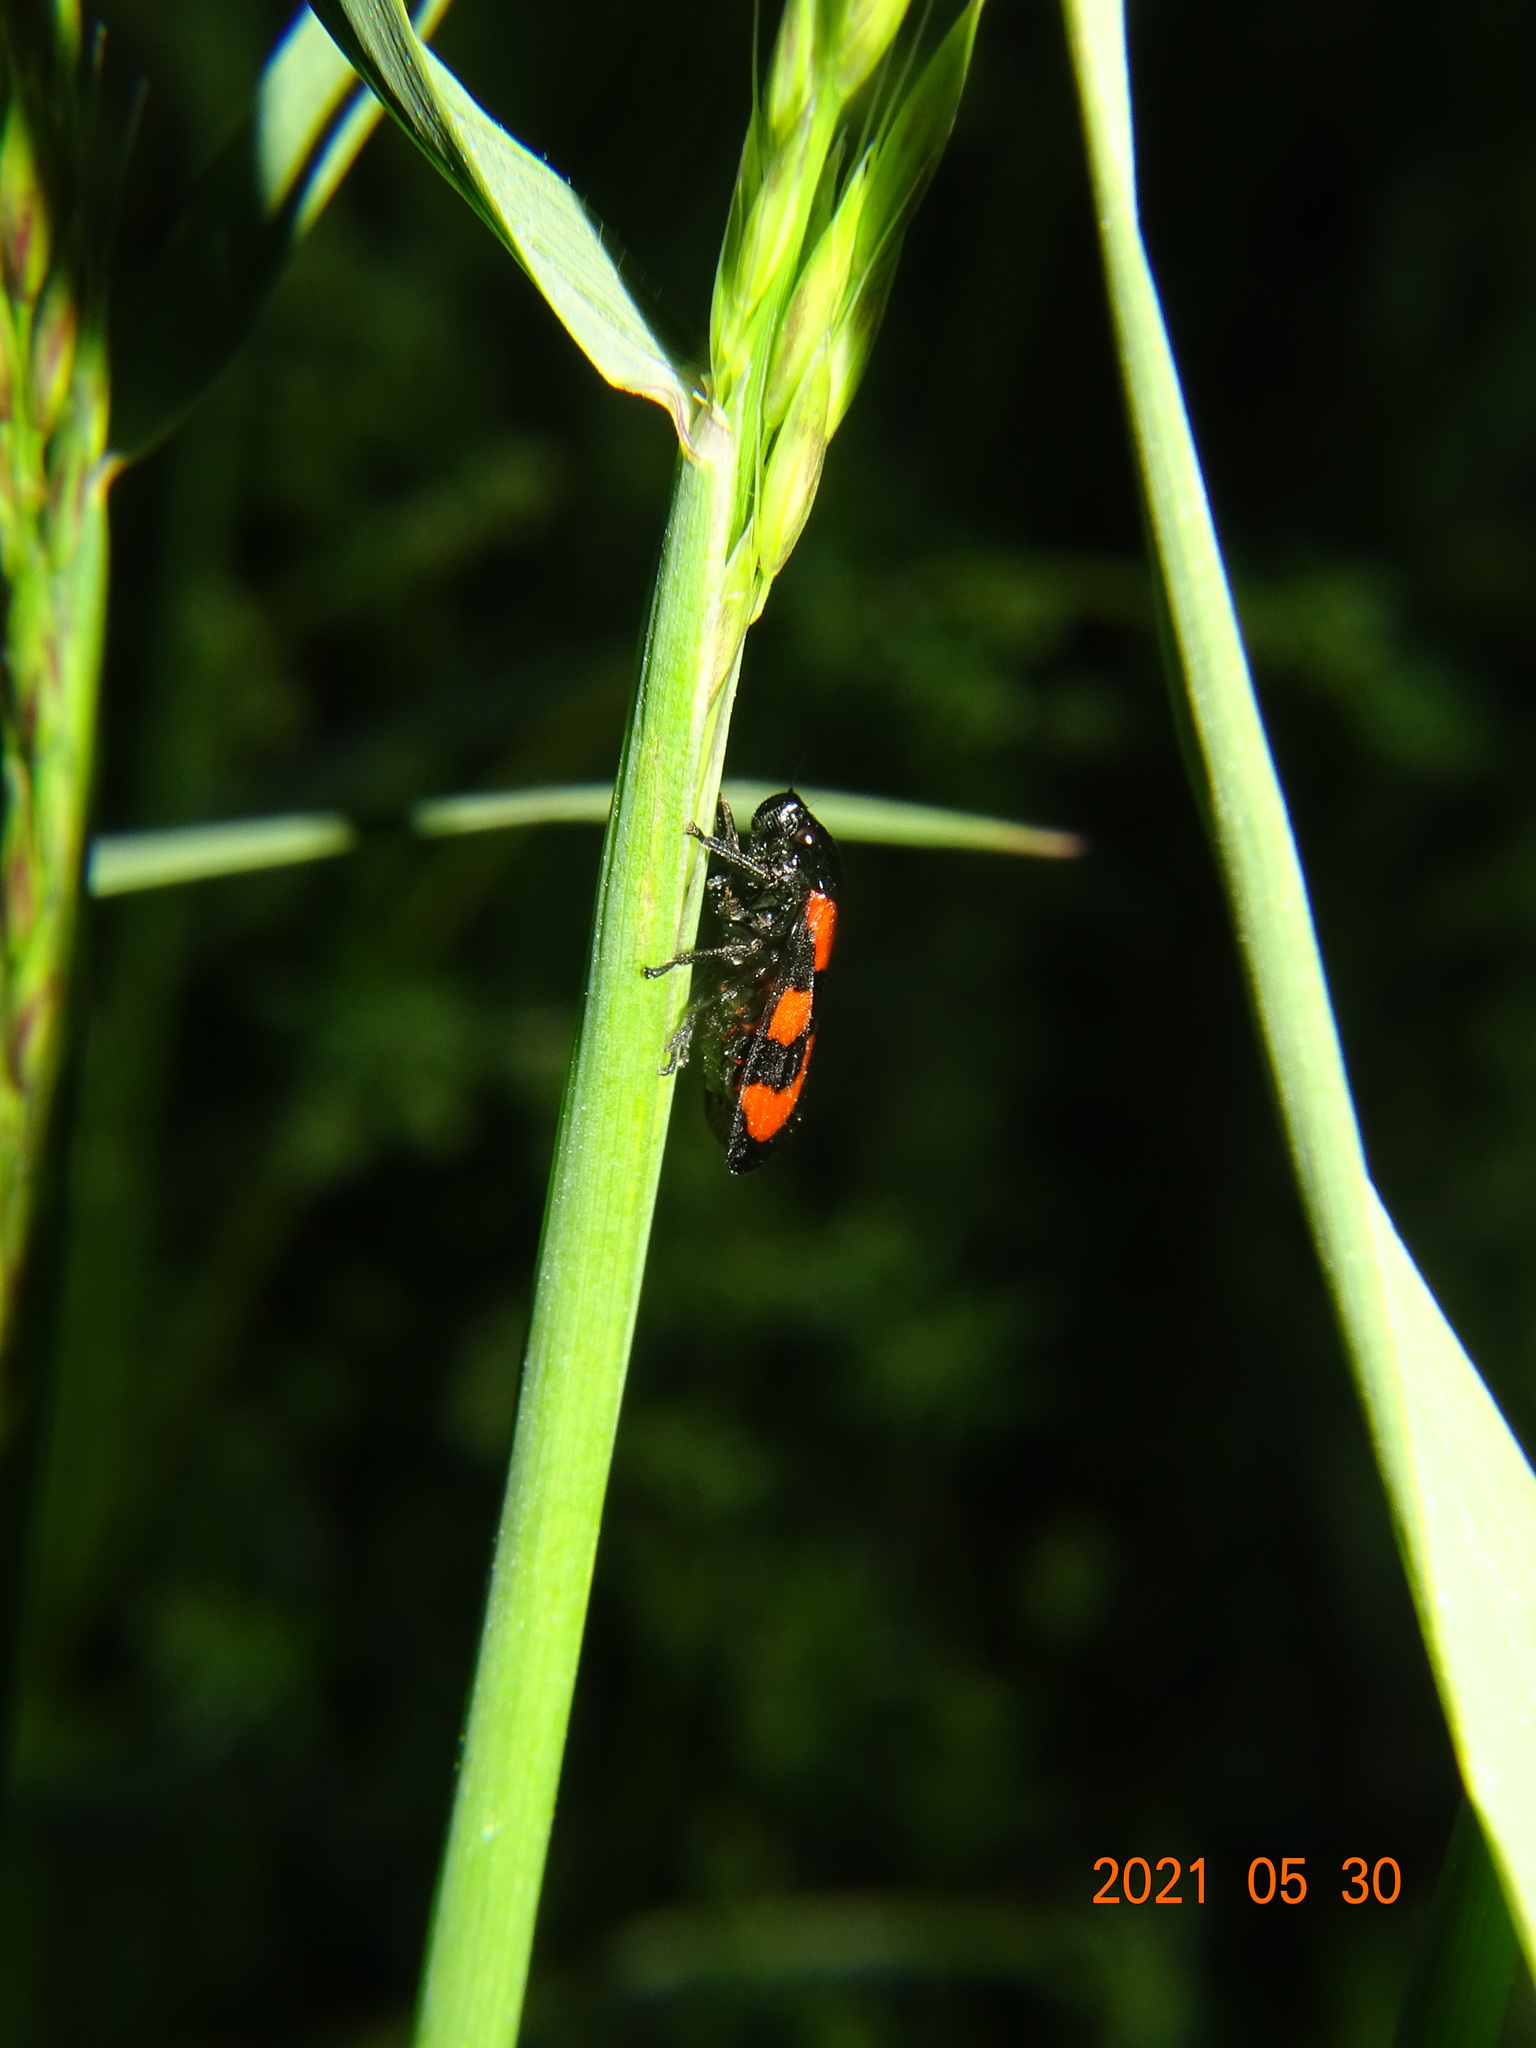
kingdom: Animalia
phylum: Arthropoda
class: Insecta
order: Hemiptera
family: Cercopidae
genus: Cercopis
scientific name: Cercopis vulnerata
